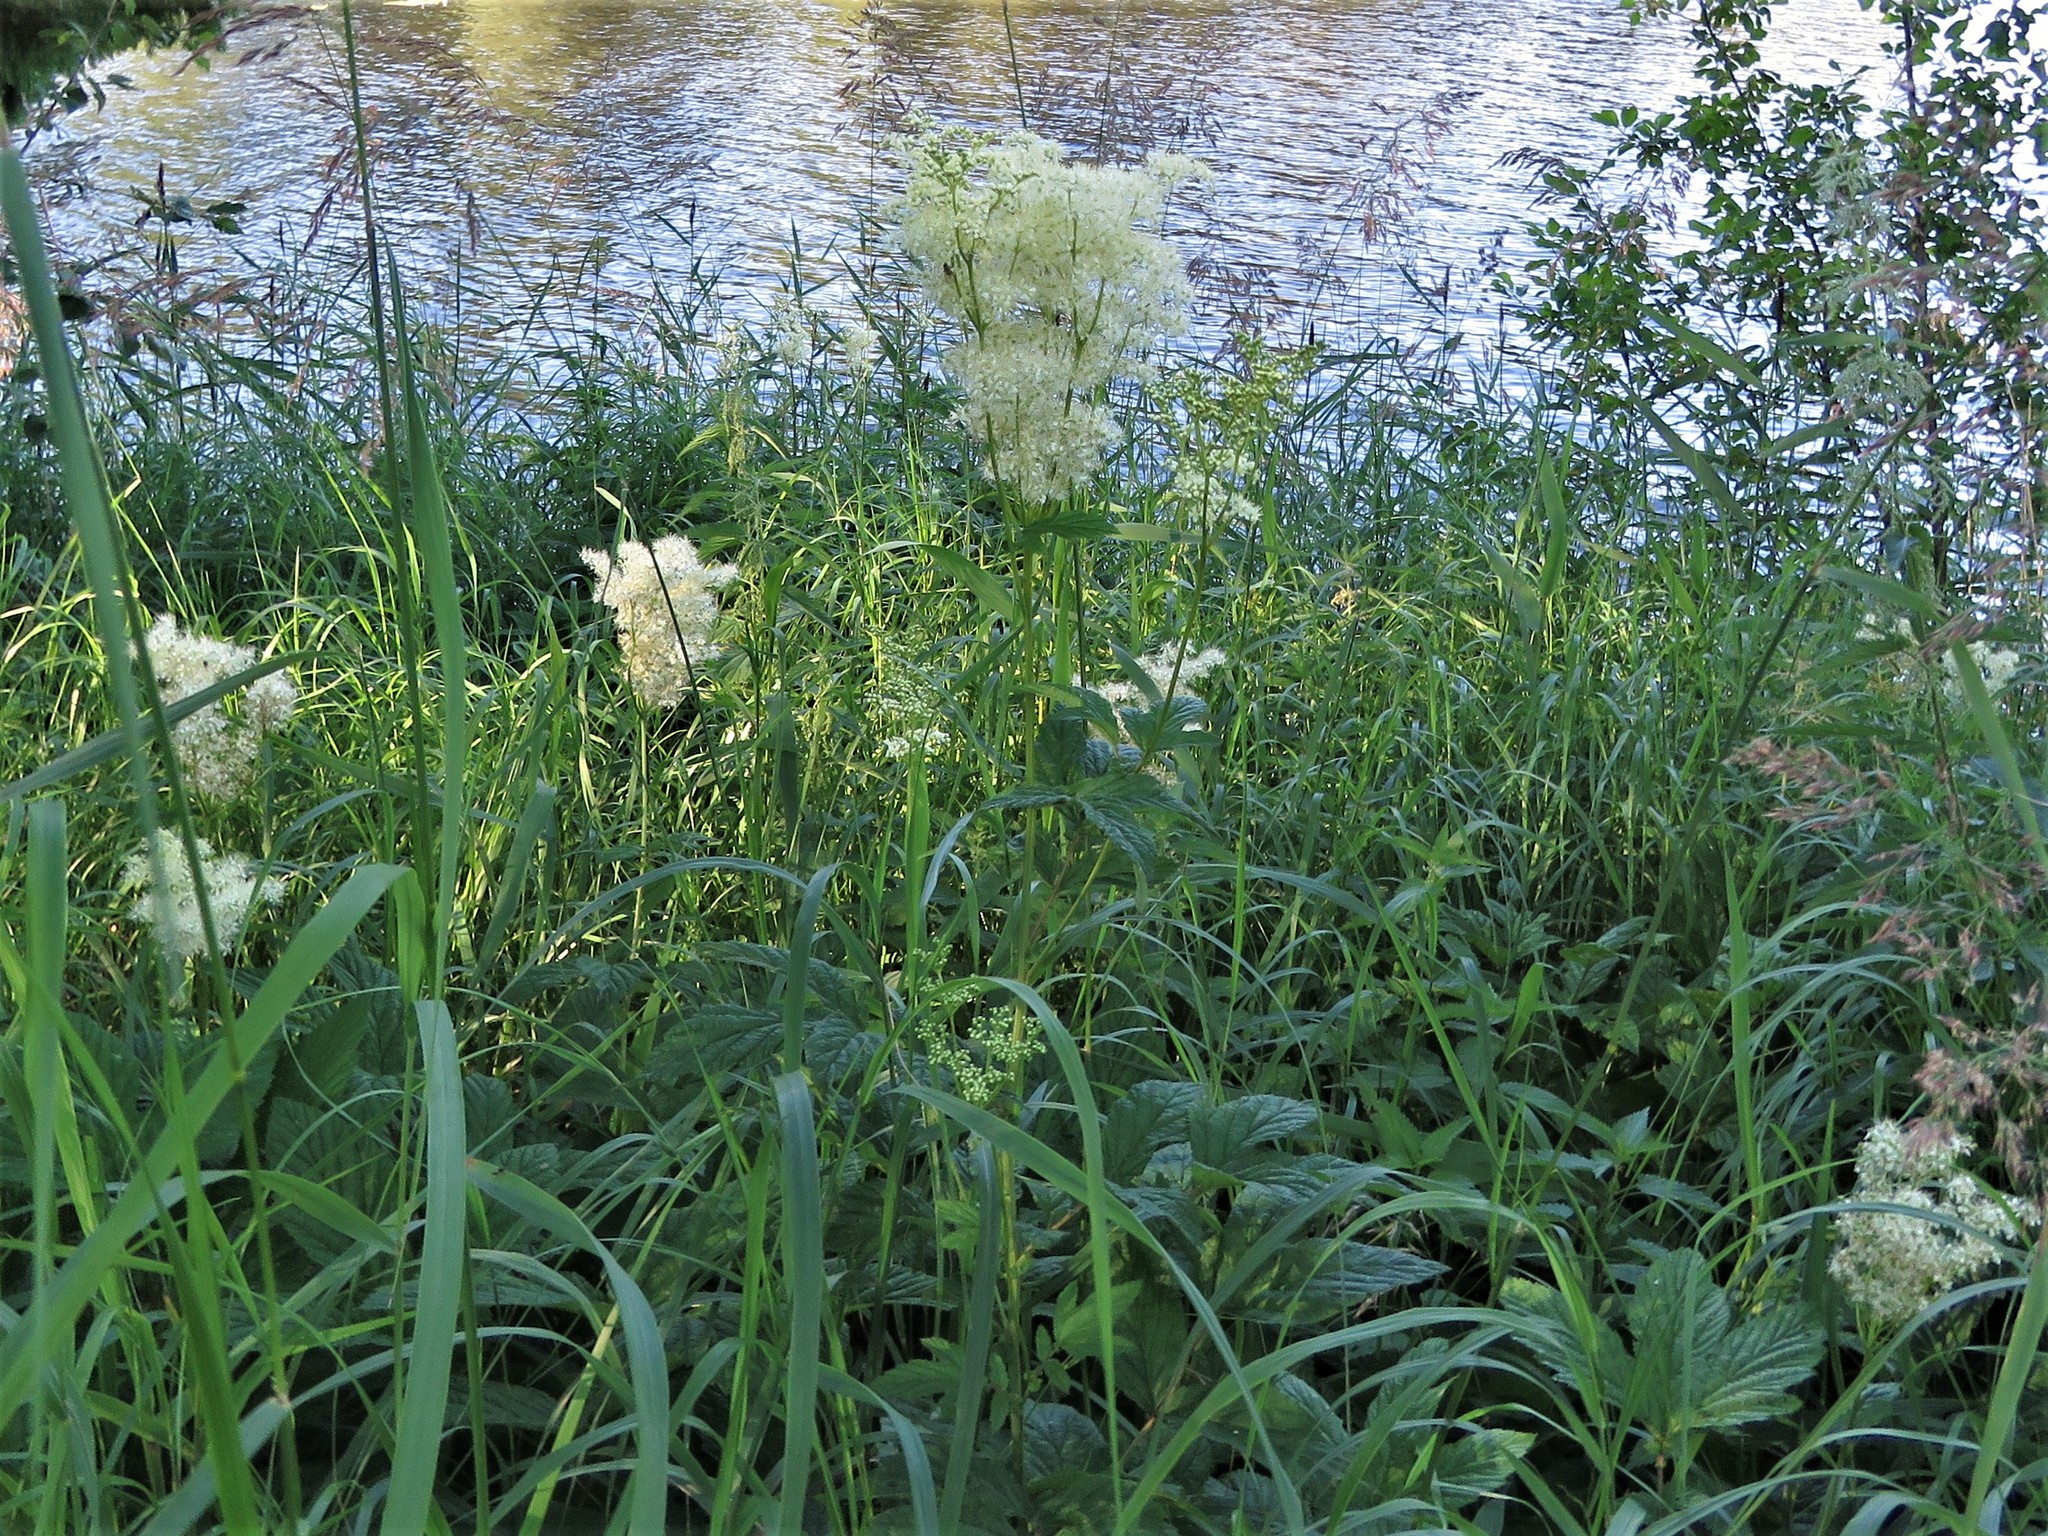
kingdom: Plantae
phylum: Tracheophyta
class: Magnoliopsida
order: Rosales
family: Rosaceae
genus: Filipendula
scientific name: Filipendula ulmaria
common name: Meadowsweet
